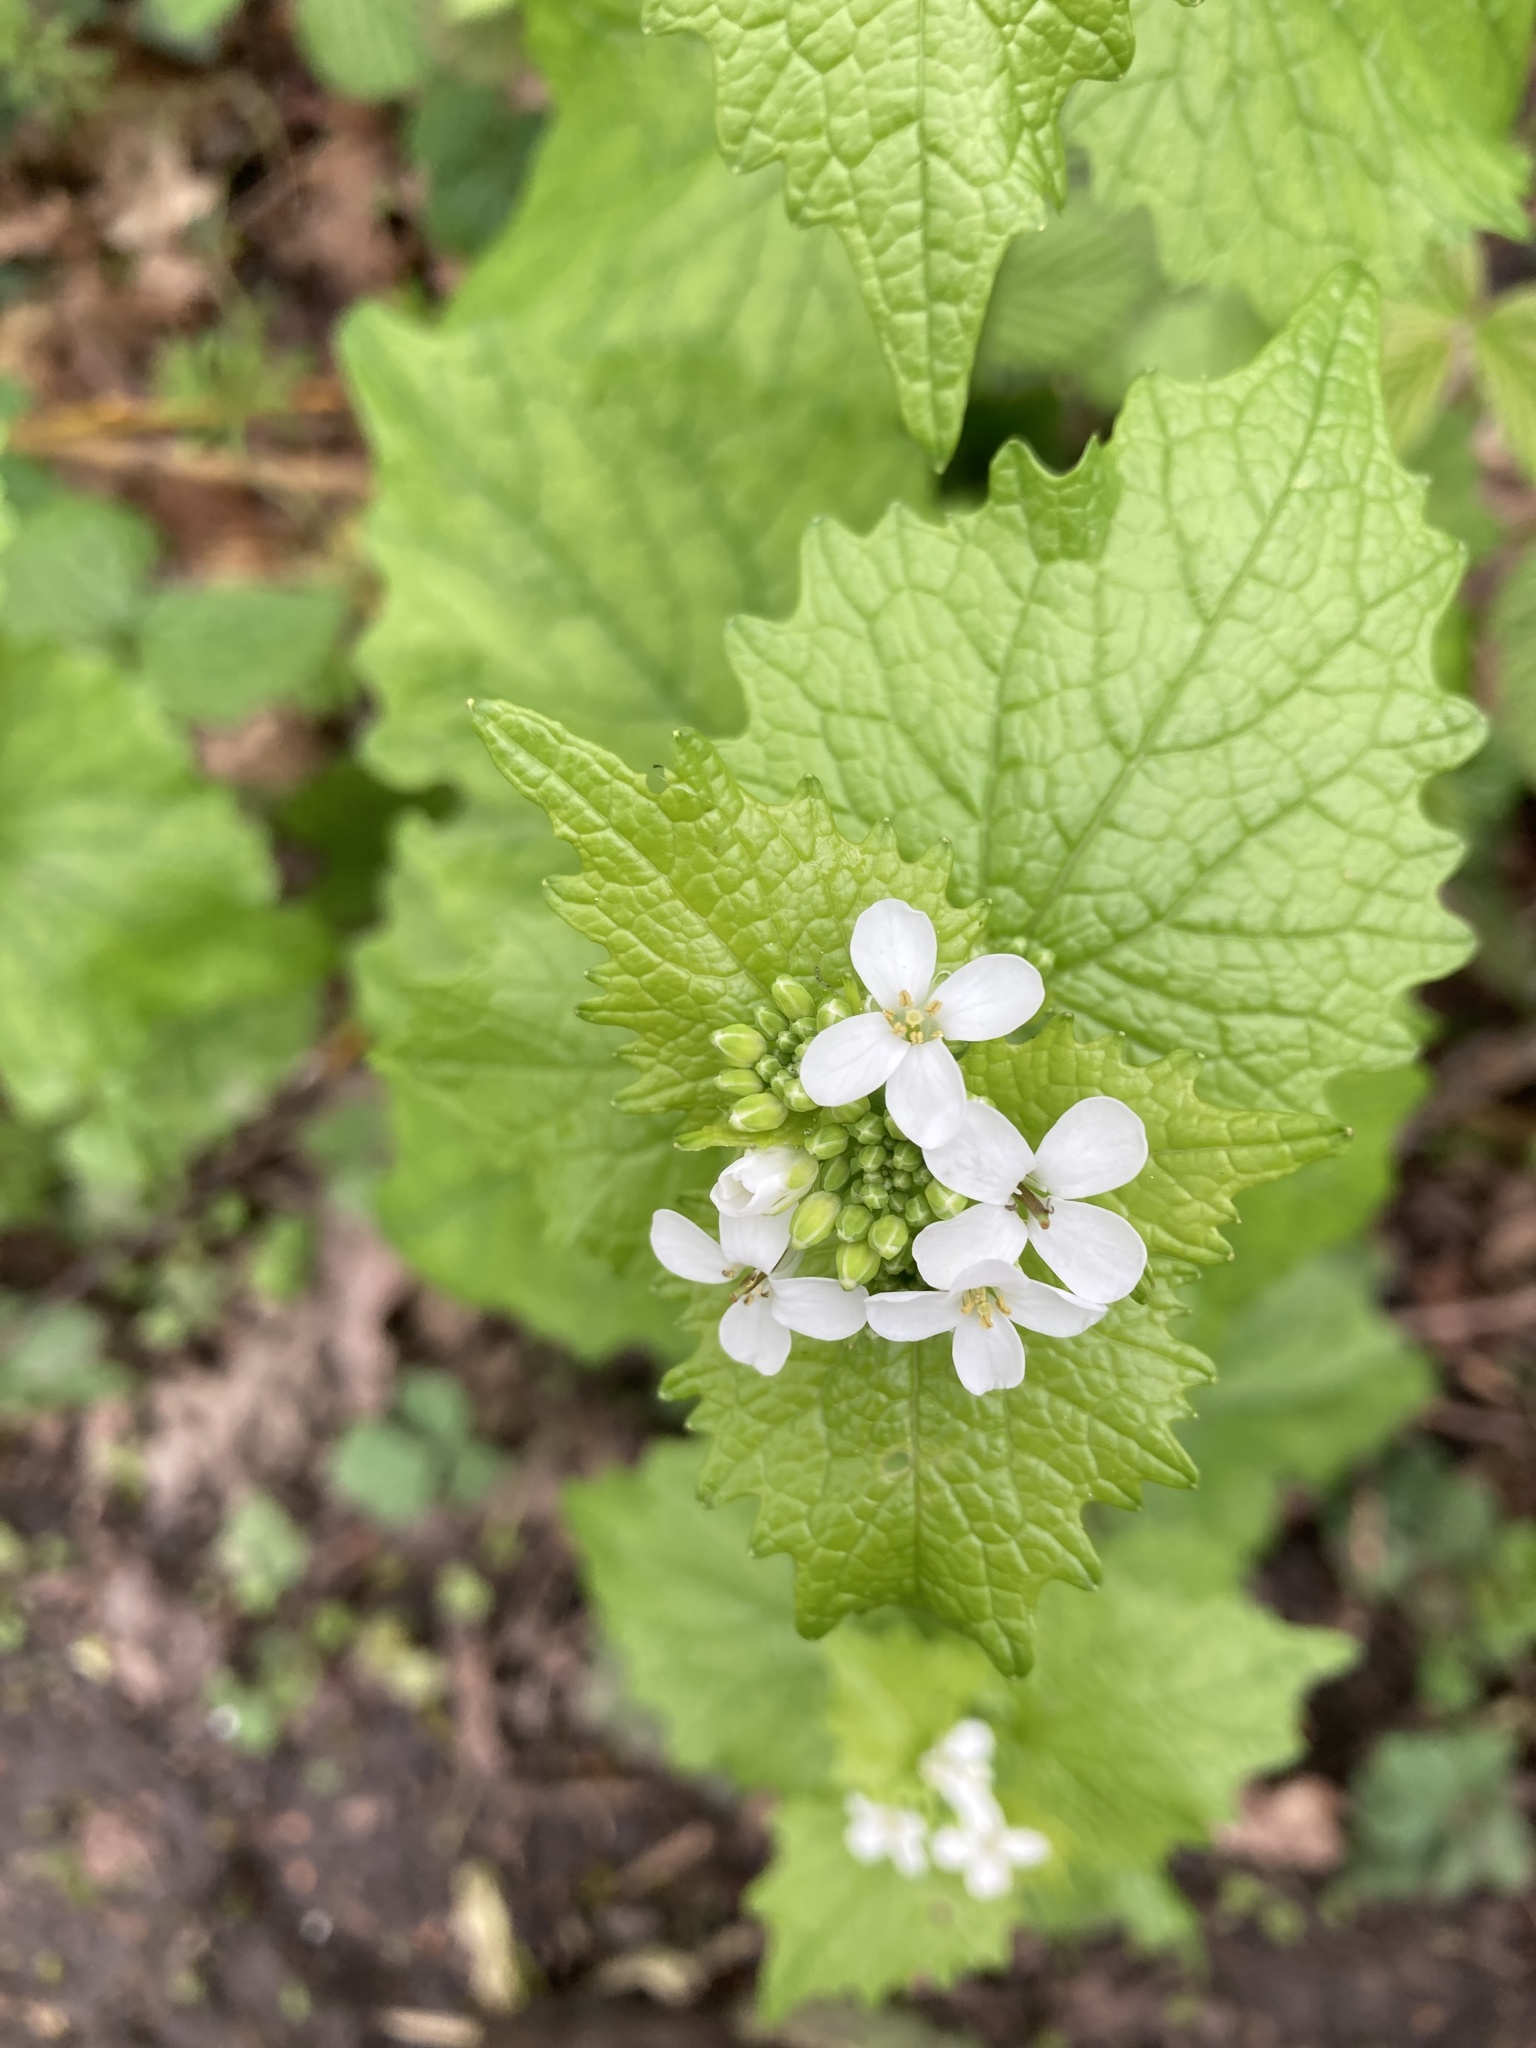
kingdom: Plantae
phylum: Tracheophyta
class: Magnoliopsida
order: Brassicales
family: Brassicaceae
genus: Alliaria
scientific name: Alliaria petiolata
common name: Garlic mustard
